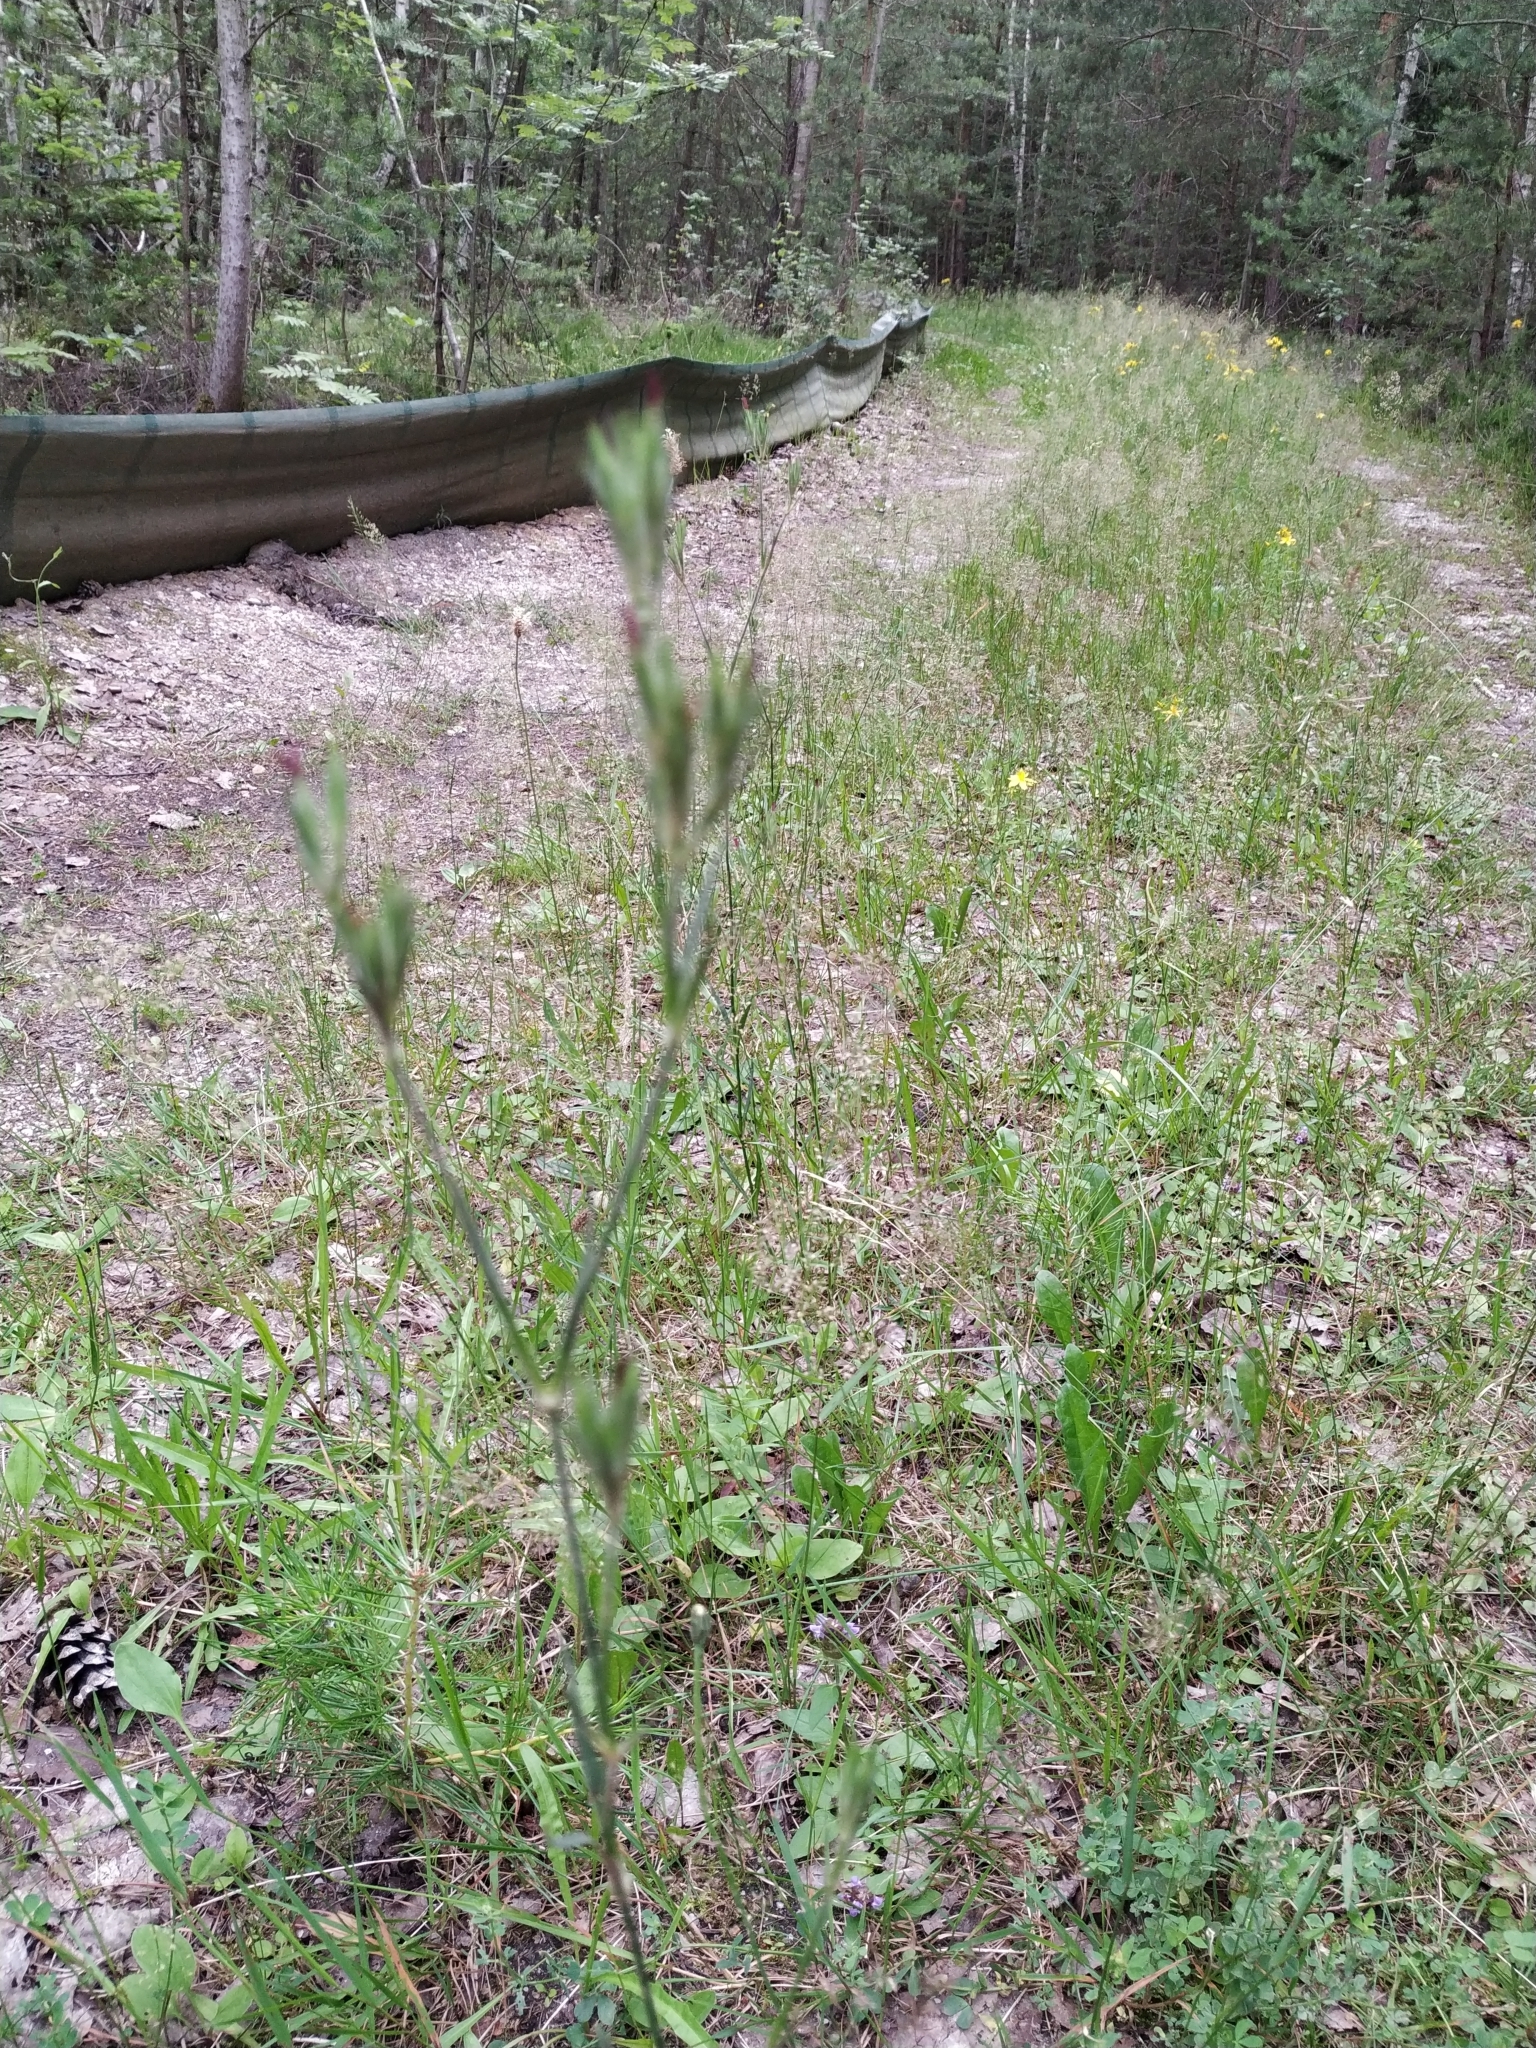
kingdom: Plantae
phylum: Tracheophyta
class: Magnoliopsida
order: Caryophyllales
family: Caryophyllaceae
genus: Dianthus
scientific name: Dianthus armeria
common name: Deptford pink
